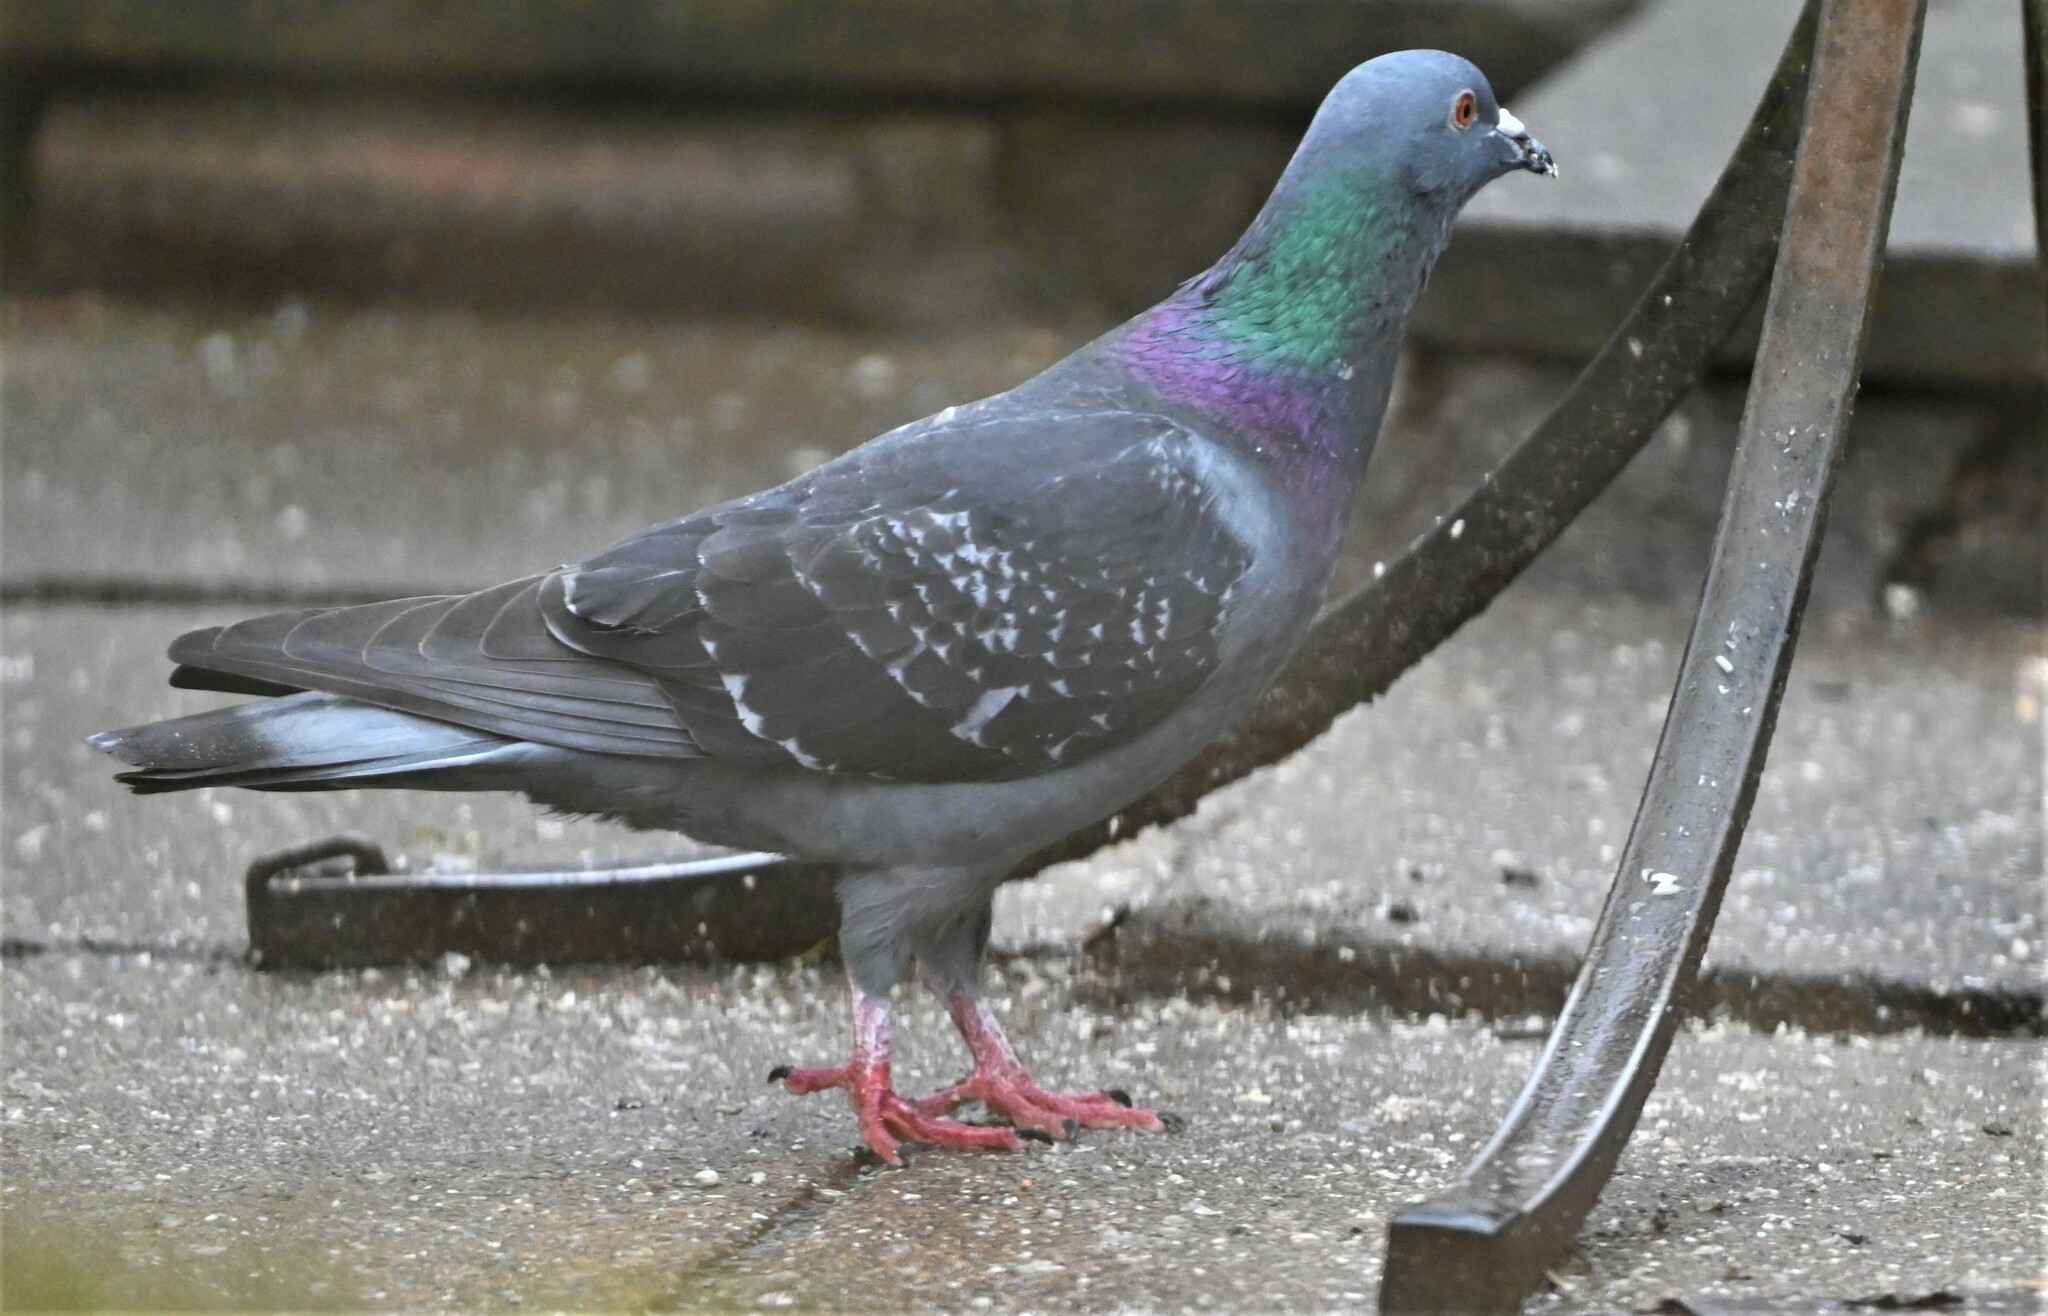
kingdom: Animalia
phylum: Chordata
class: Aves
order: Columbiformes
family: Columbidae
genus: Columba
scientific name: Columba livia
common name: Rock pigeon
